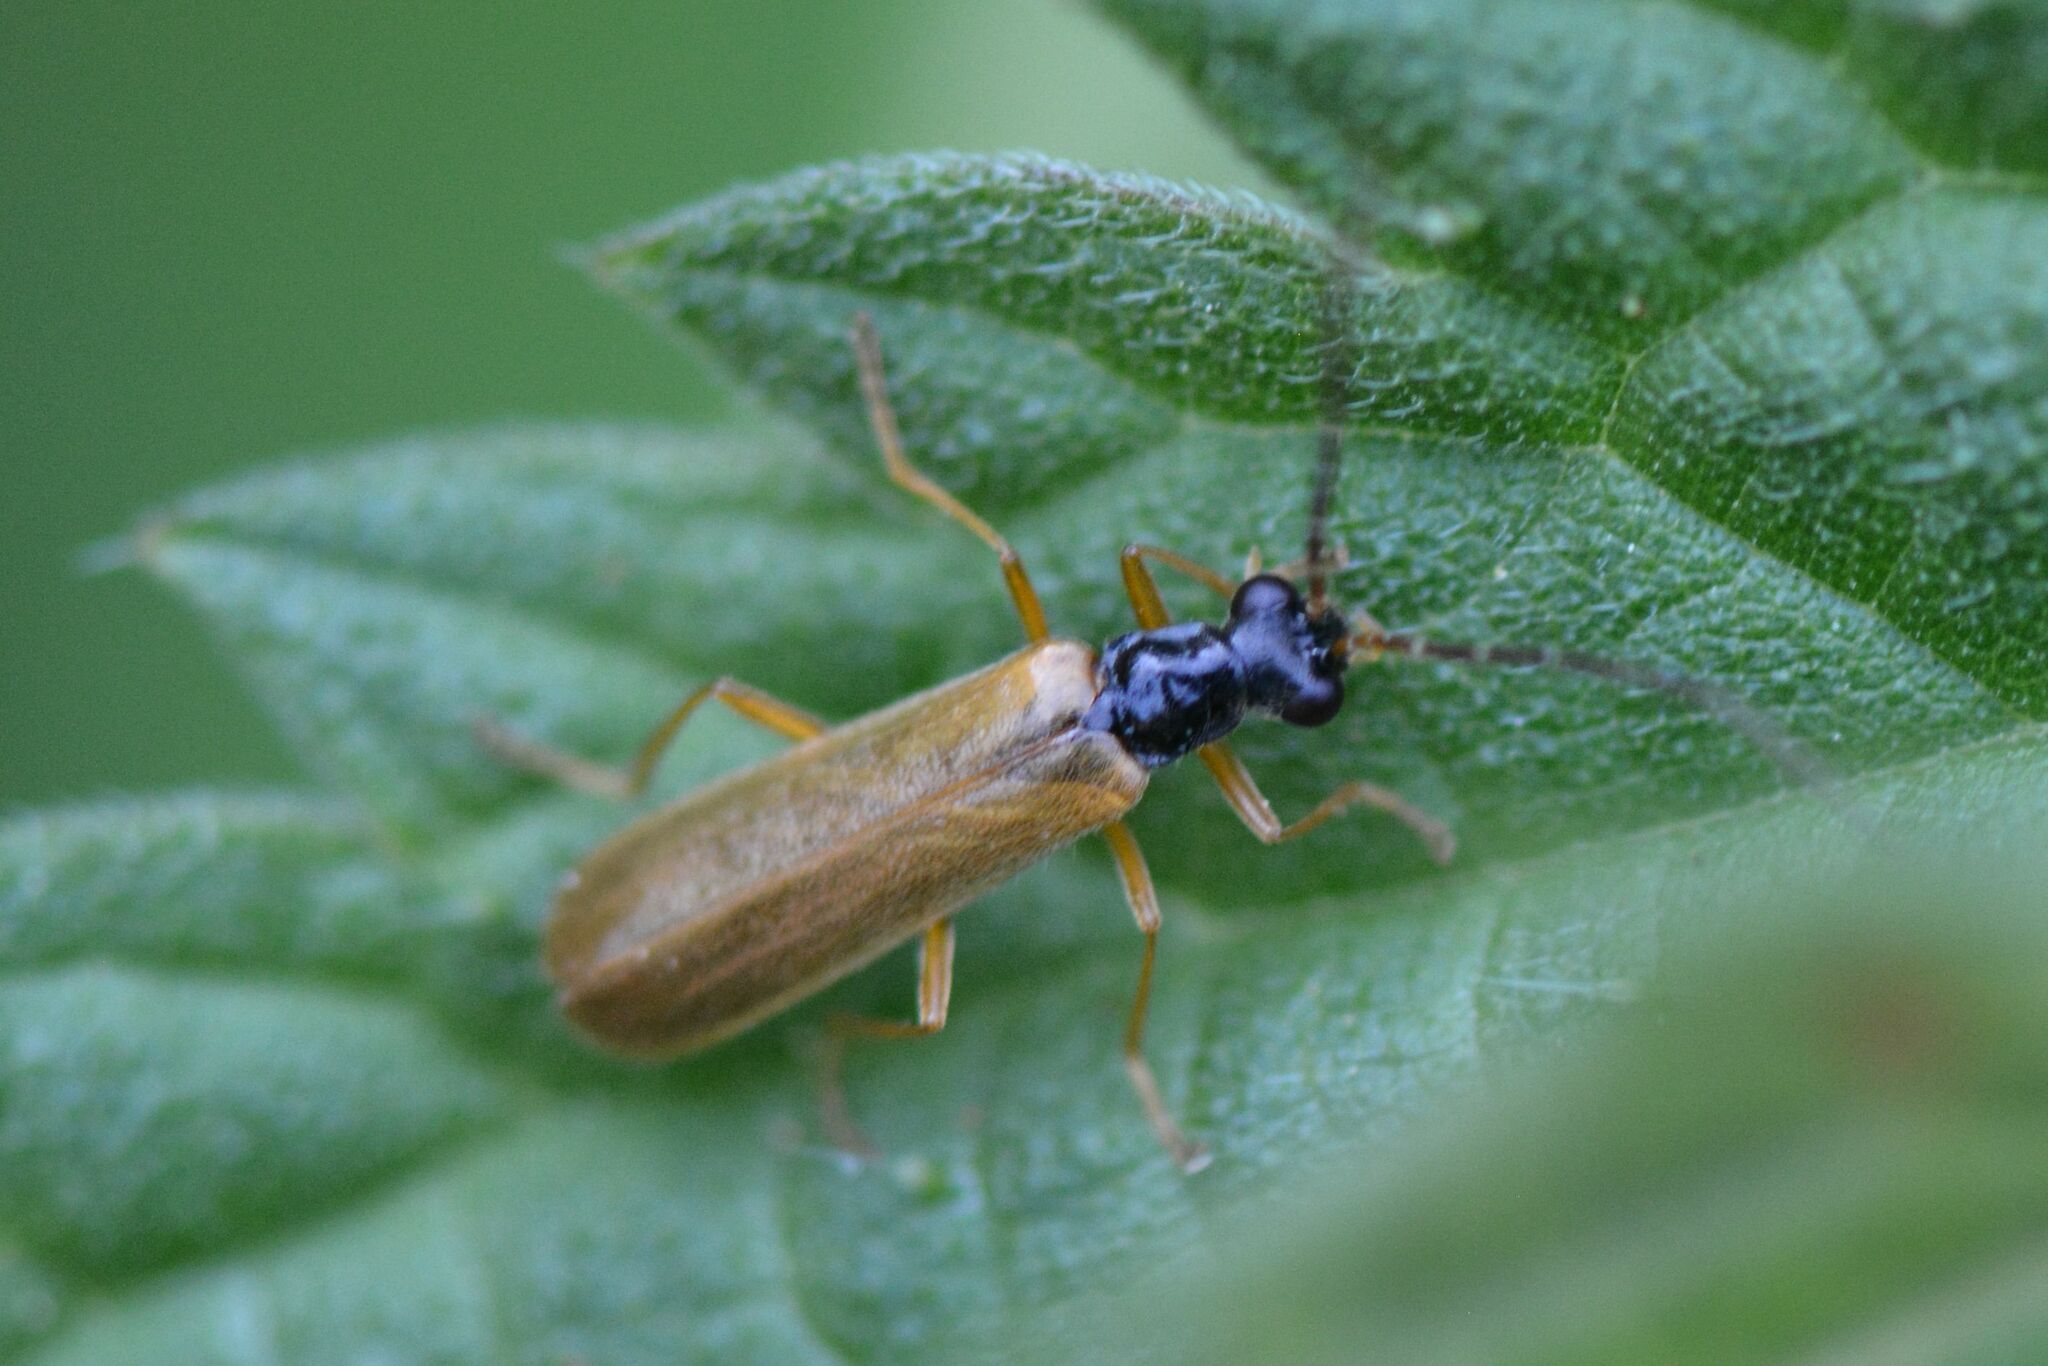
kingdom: Animalia
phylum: Arthropoda
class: Insecta
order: Coleoptera
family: Cantharidae
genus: Rhagonycha
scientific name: Rhagonycha lignosa
